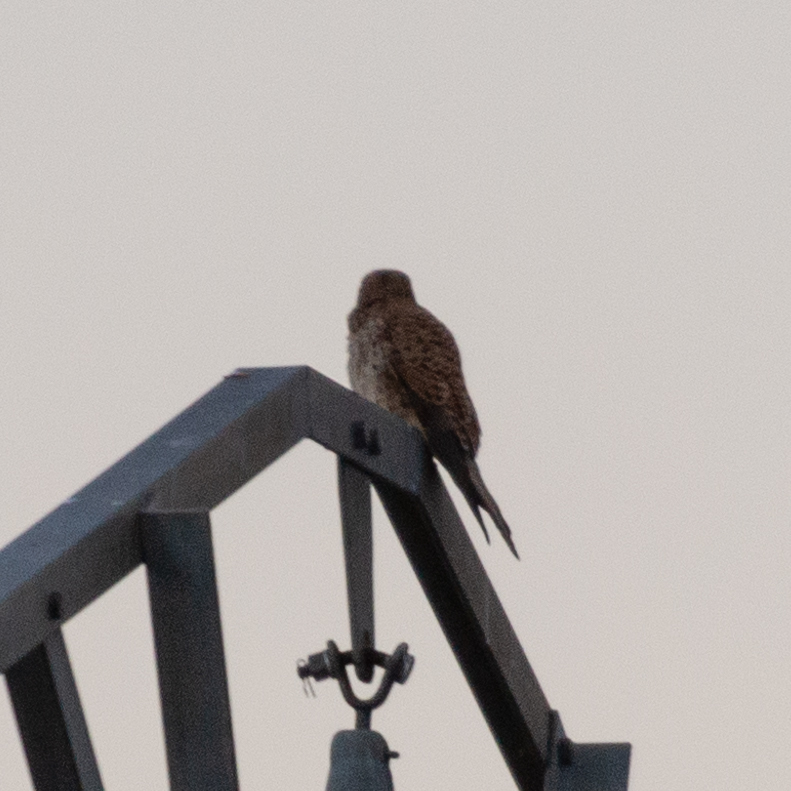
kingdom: Animalia
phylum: Chordata
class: Aves
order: Falconiformes
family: Falconidae
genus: Falco
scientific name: Falco tinnunculus
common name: Common kestrel
